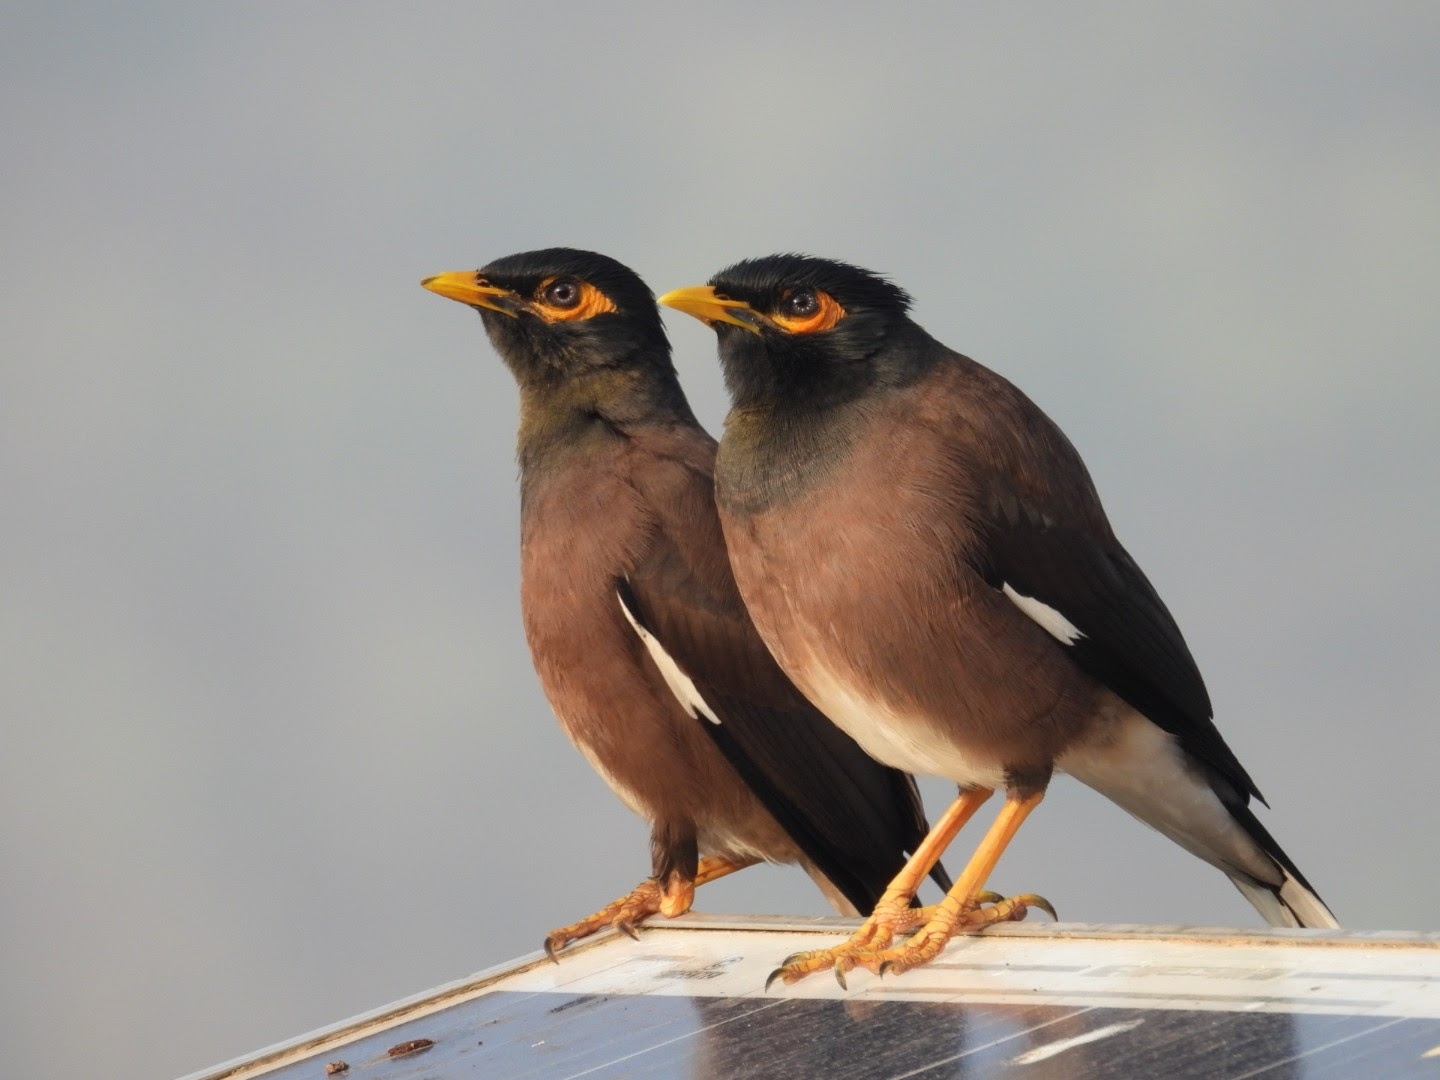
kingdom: Animalia
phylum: Chordata
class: Aves
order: Passeriformes
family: Sturnidae
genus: Acridotheres
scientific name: Acridotheres tristis
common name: Common myna
